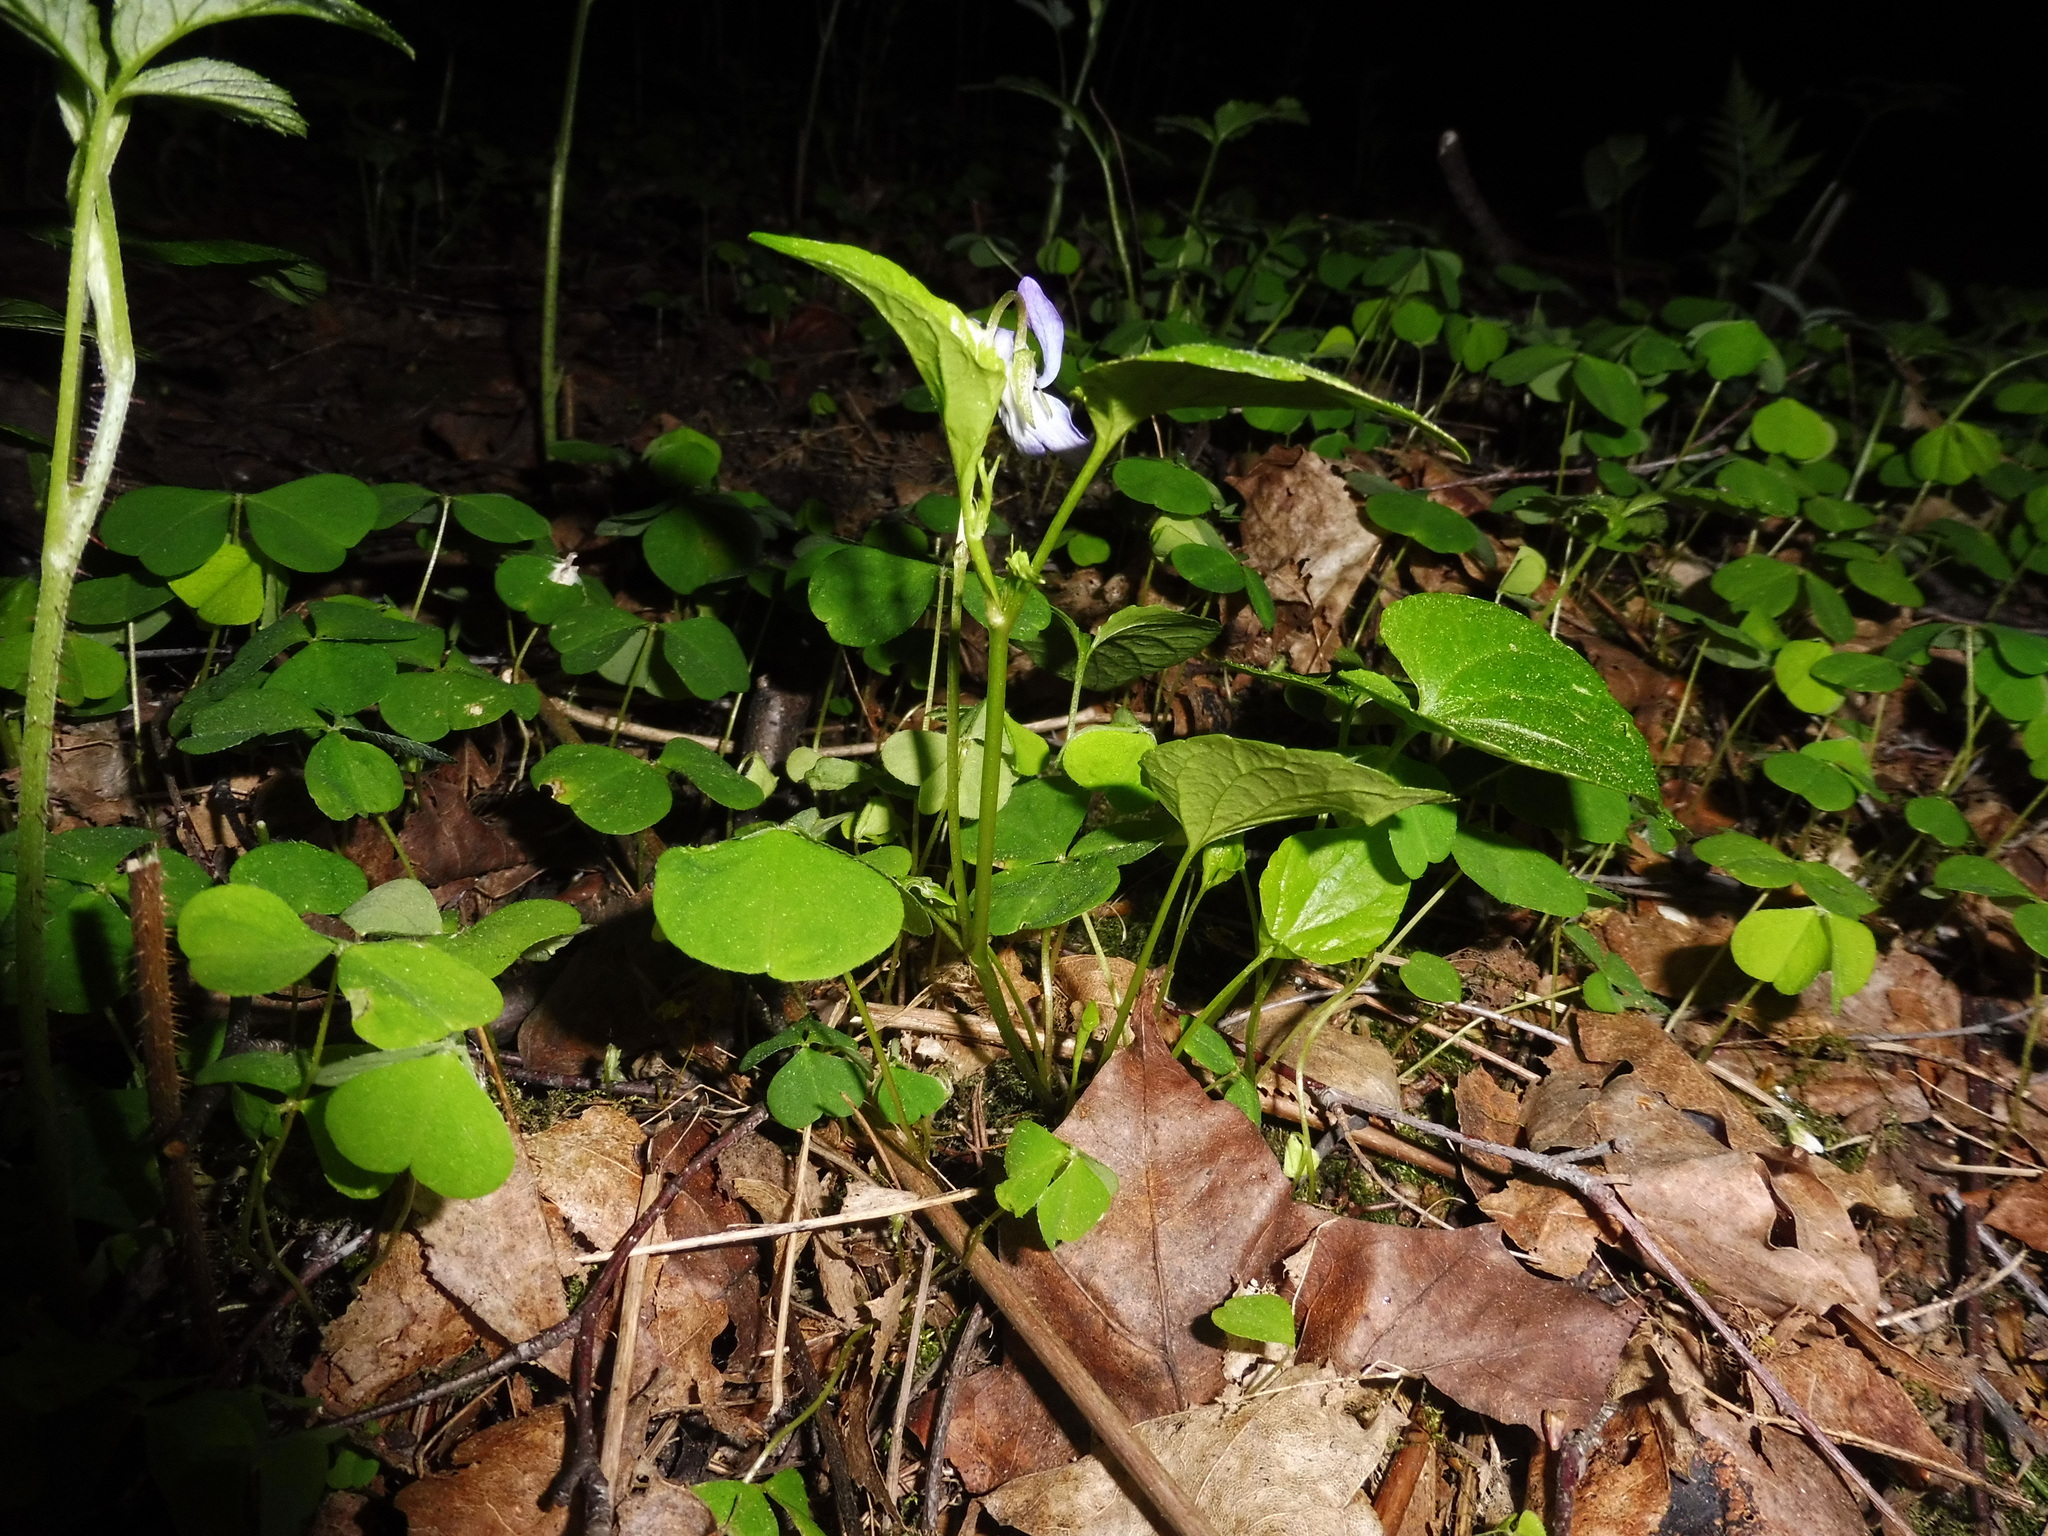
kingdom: Plantae
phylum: Tracheophyta
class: Magnoliopsida
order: Malpighiales
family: Violaceae
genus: Viola
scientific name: Viola riviniana
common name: Common dog-violet
